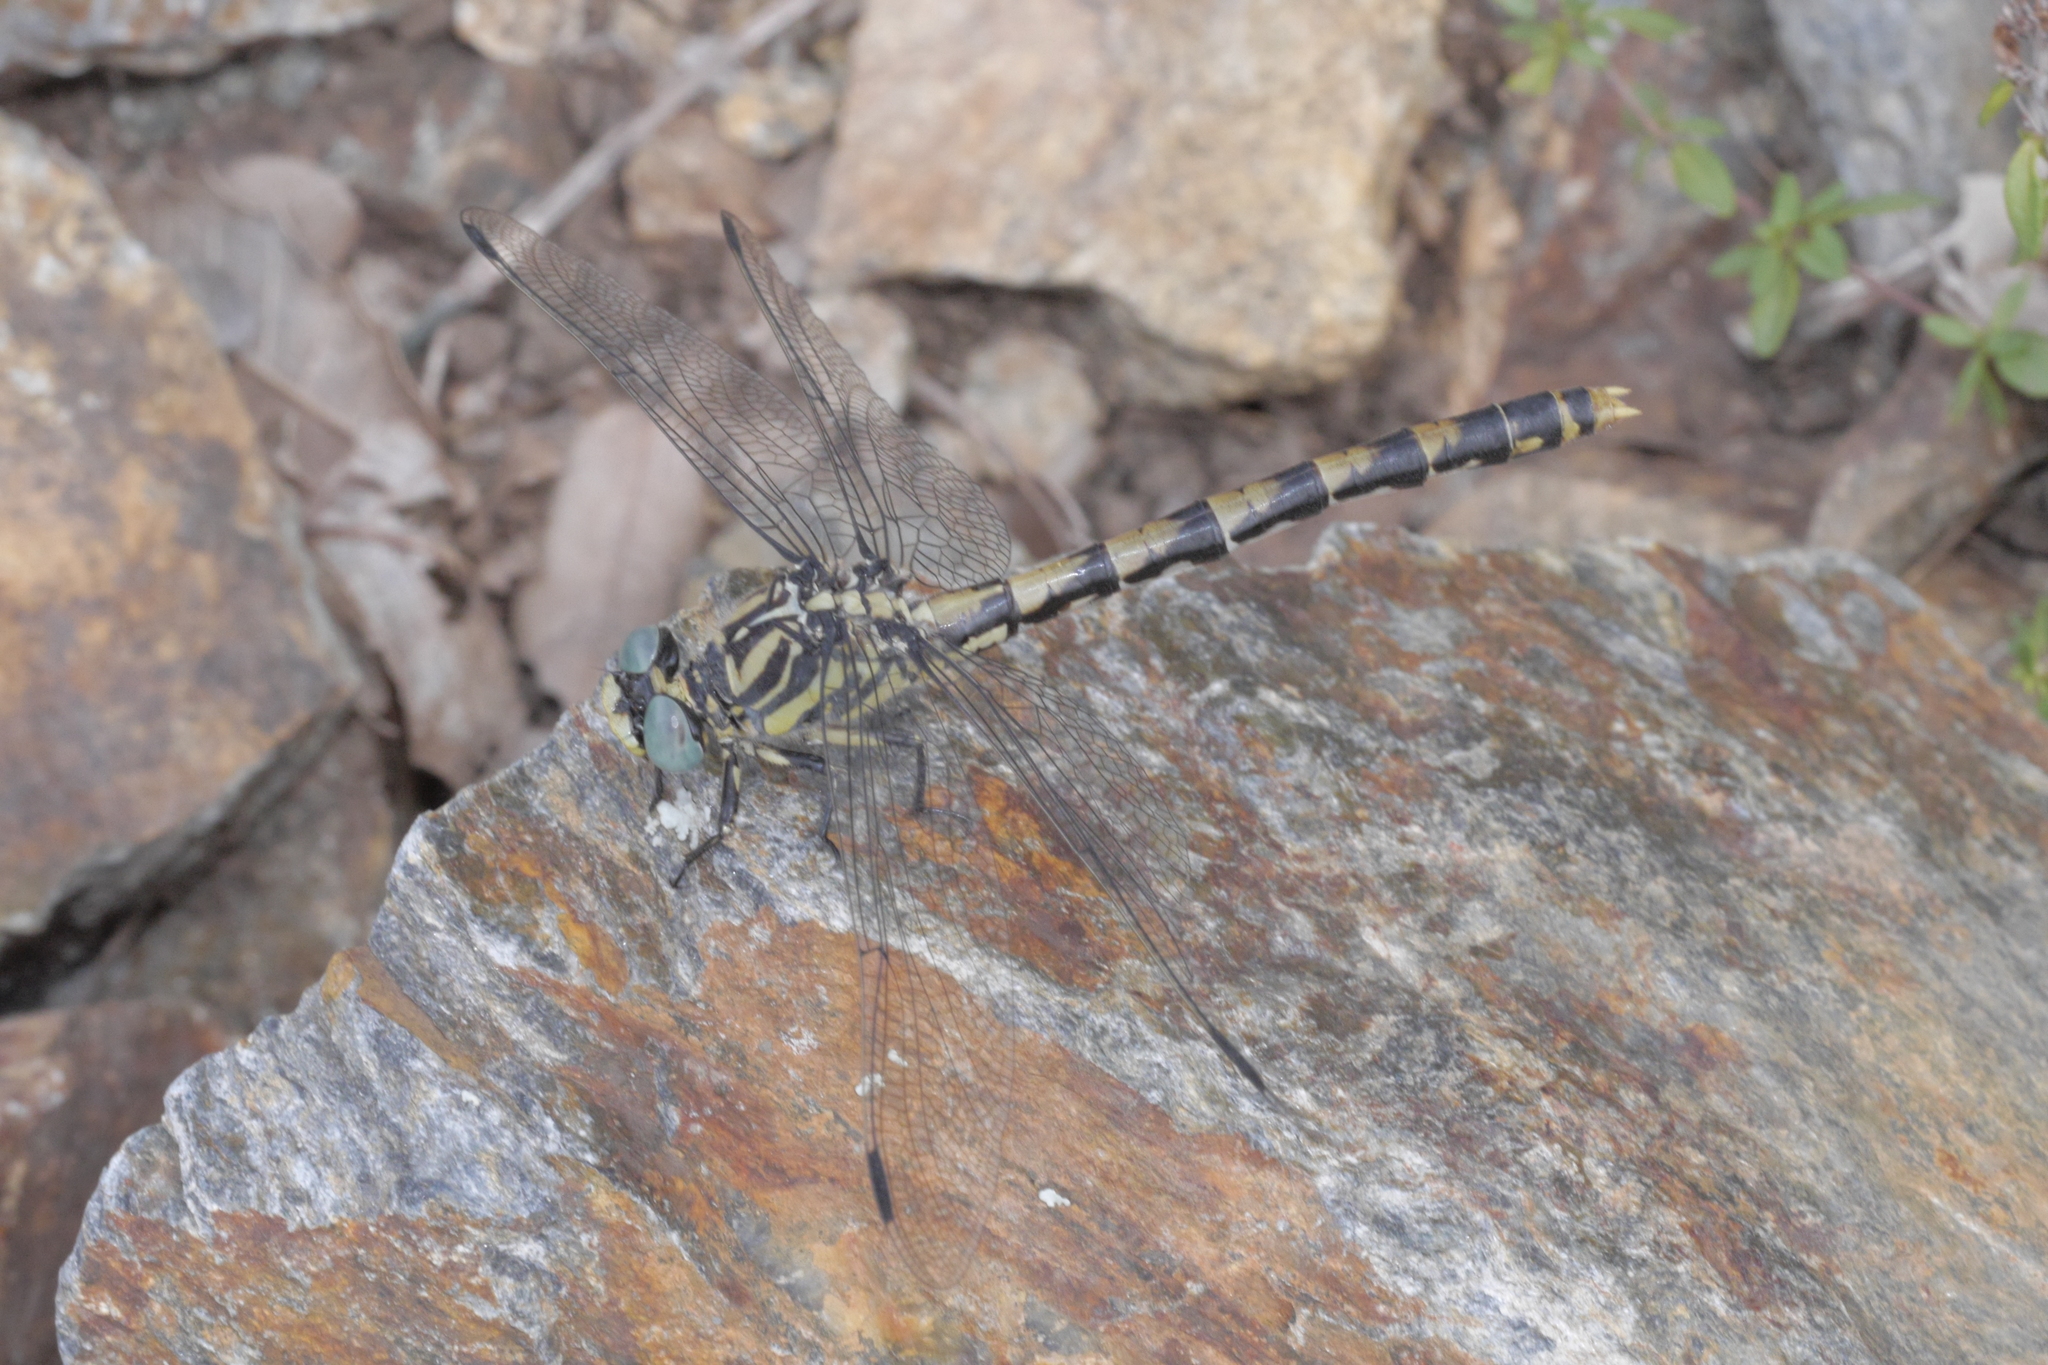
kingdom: Animalia
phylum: Arthropoda
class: Insecta
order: Odonata
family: Gomphidae
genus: Onychogomphus
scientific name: Onychogomphus uncatus
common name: Large pincertail
